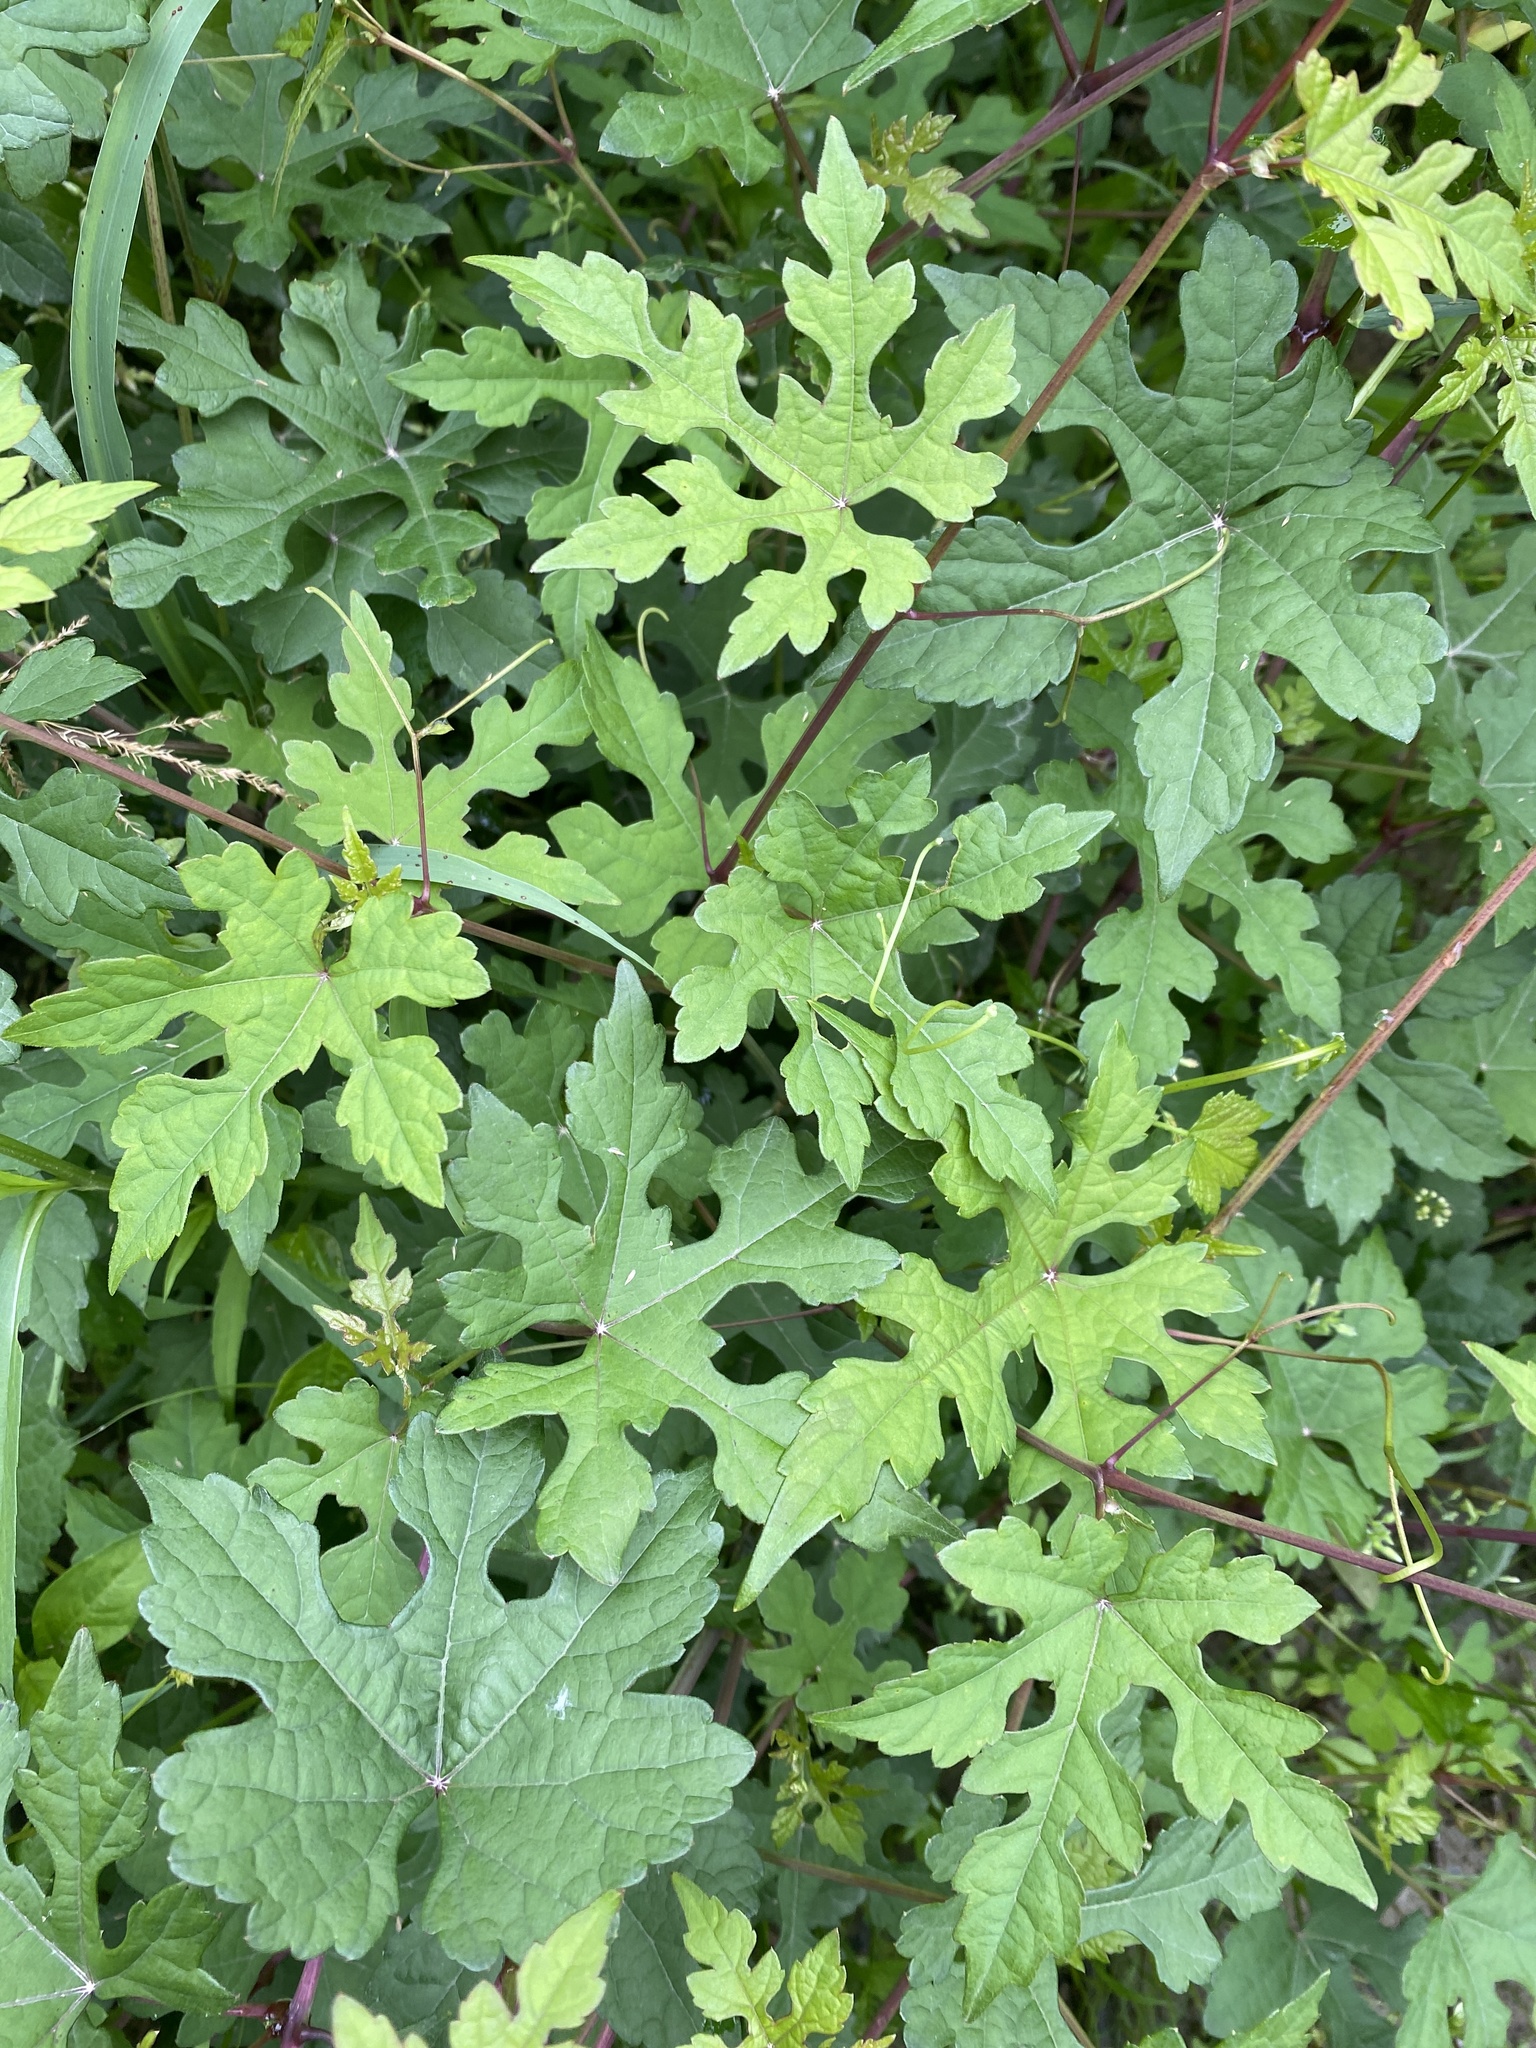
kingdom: Plantae
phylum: Tracheophyta
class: Magnoliopsida
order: Vitales
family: Vitaceae
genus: Ampelopsis
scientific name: Ampelopsis glandulosa
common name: Amur peppervine
